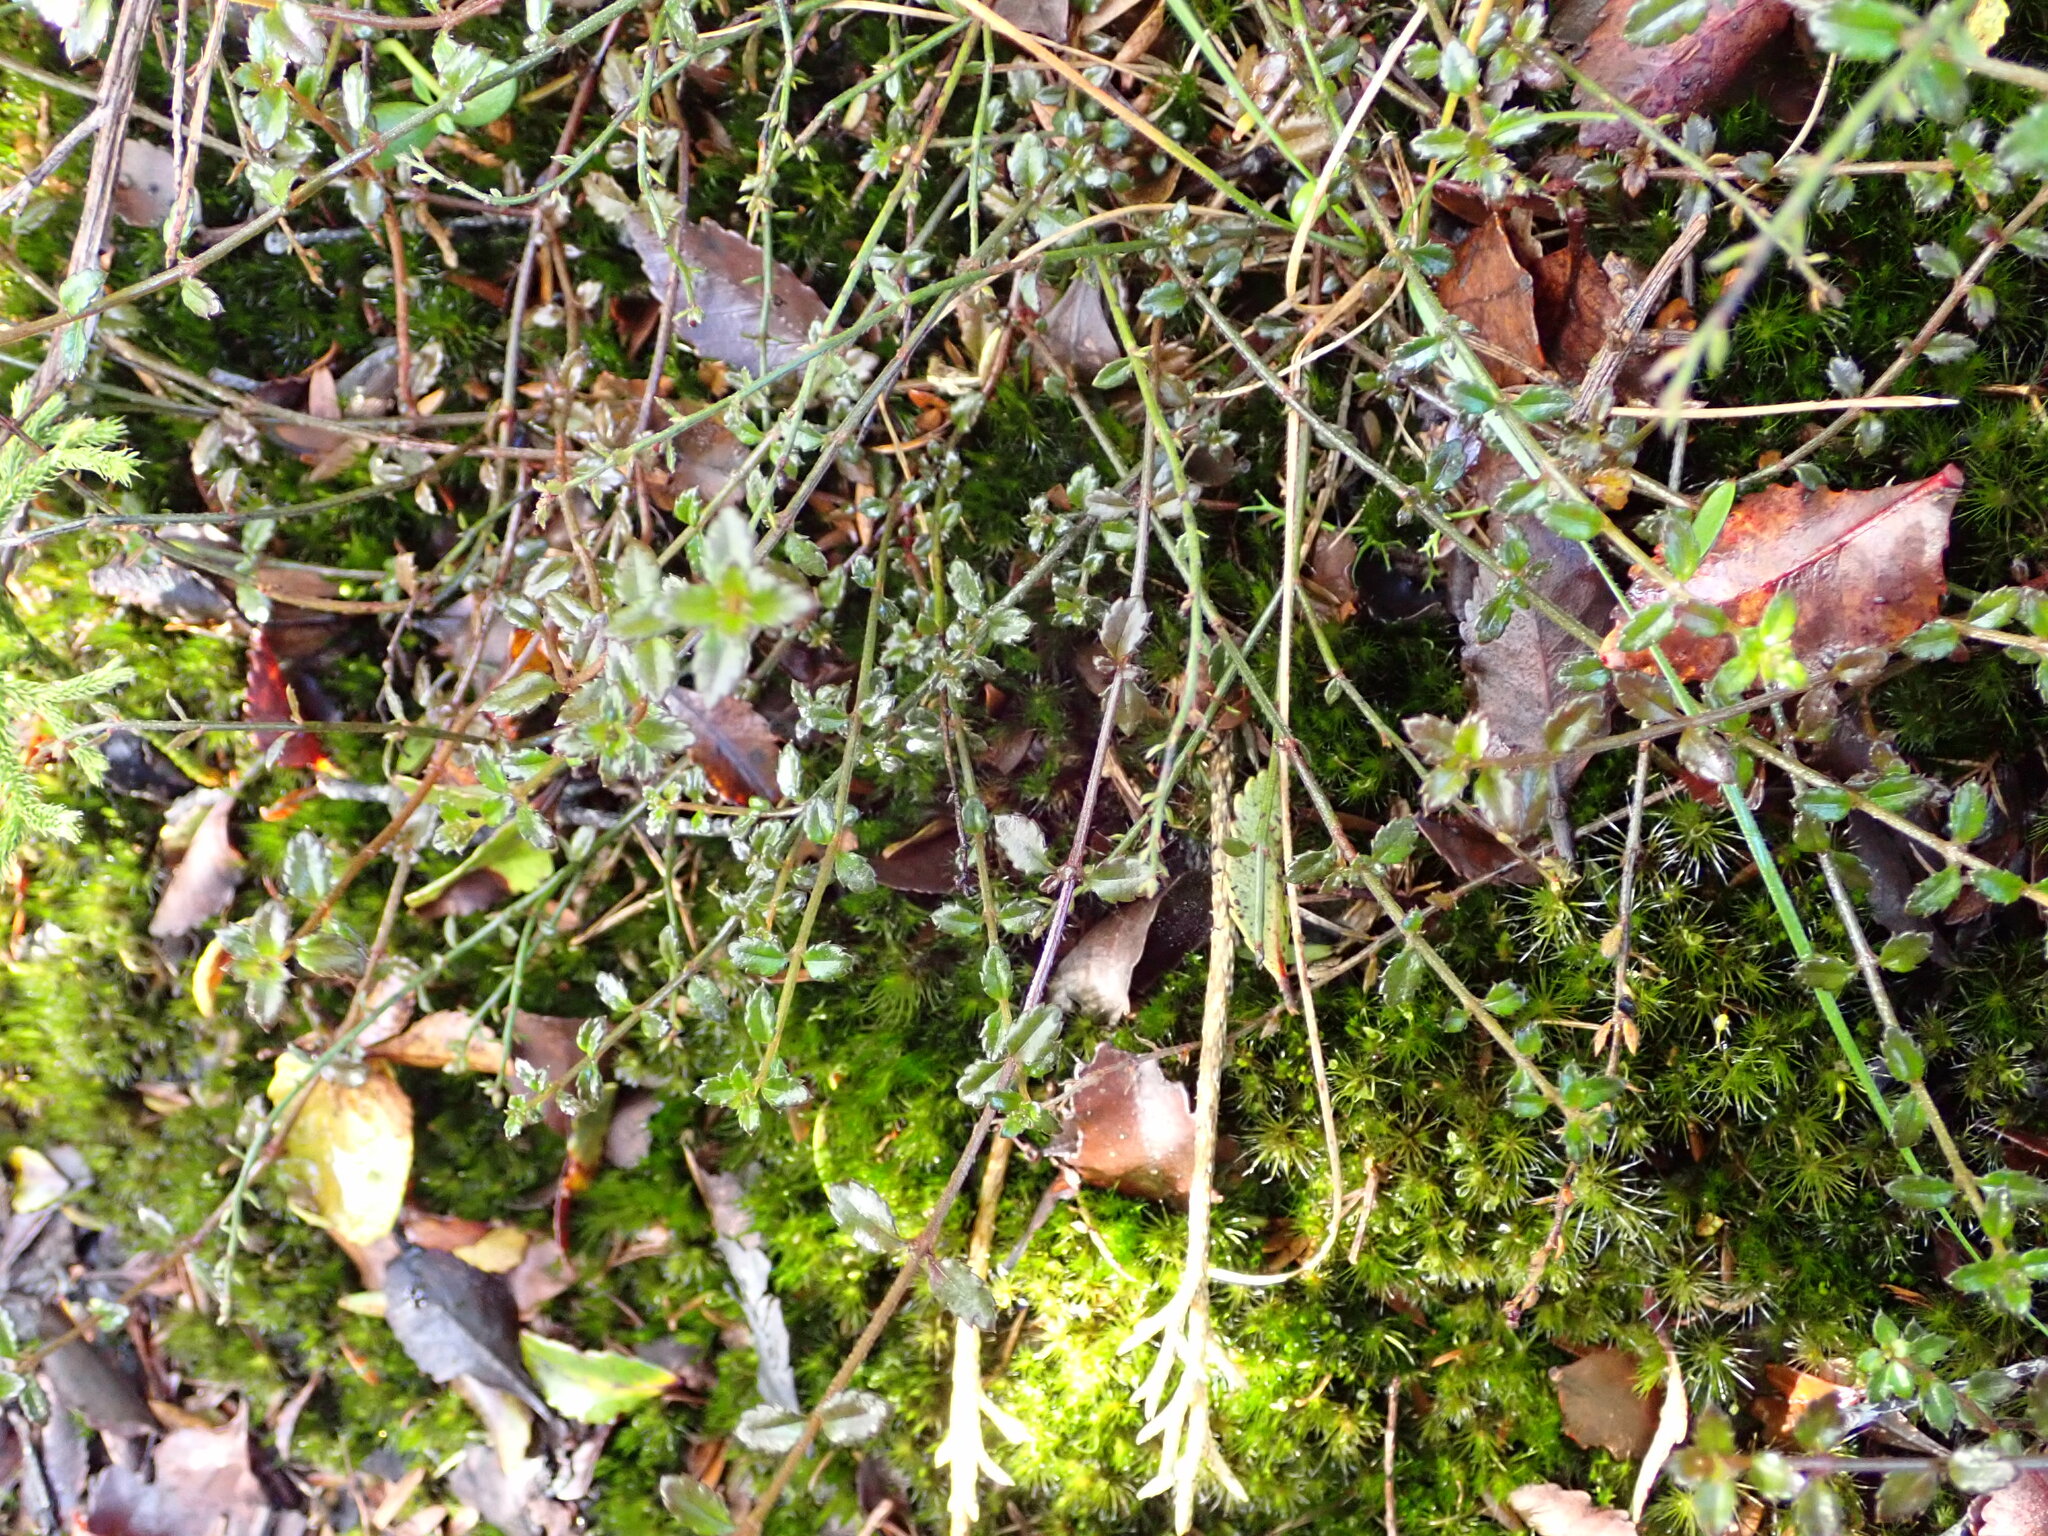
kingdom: Plantae
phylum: Tracheophyta
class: Magnoliopsida
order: Saxifragales
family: Haloragaceae
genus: Gonocarpus
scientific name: Gonocarpus incanus
